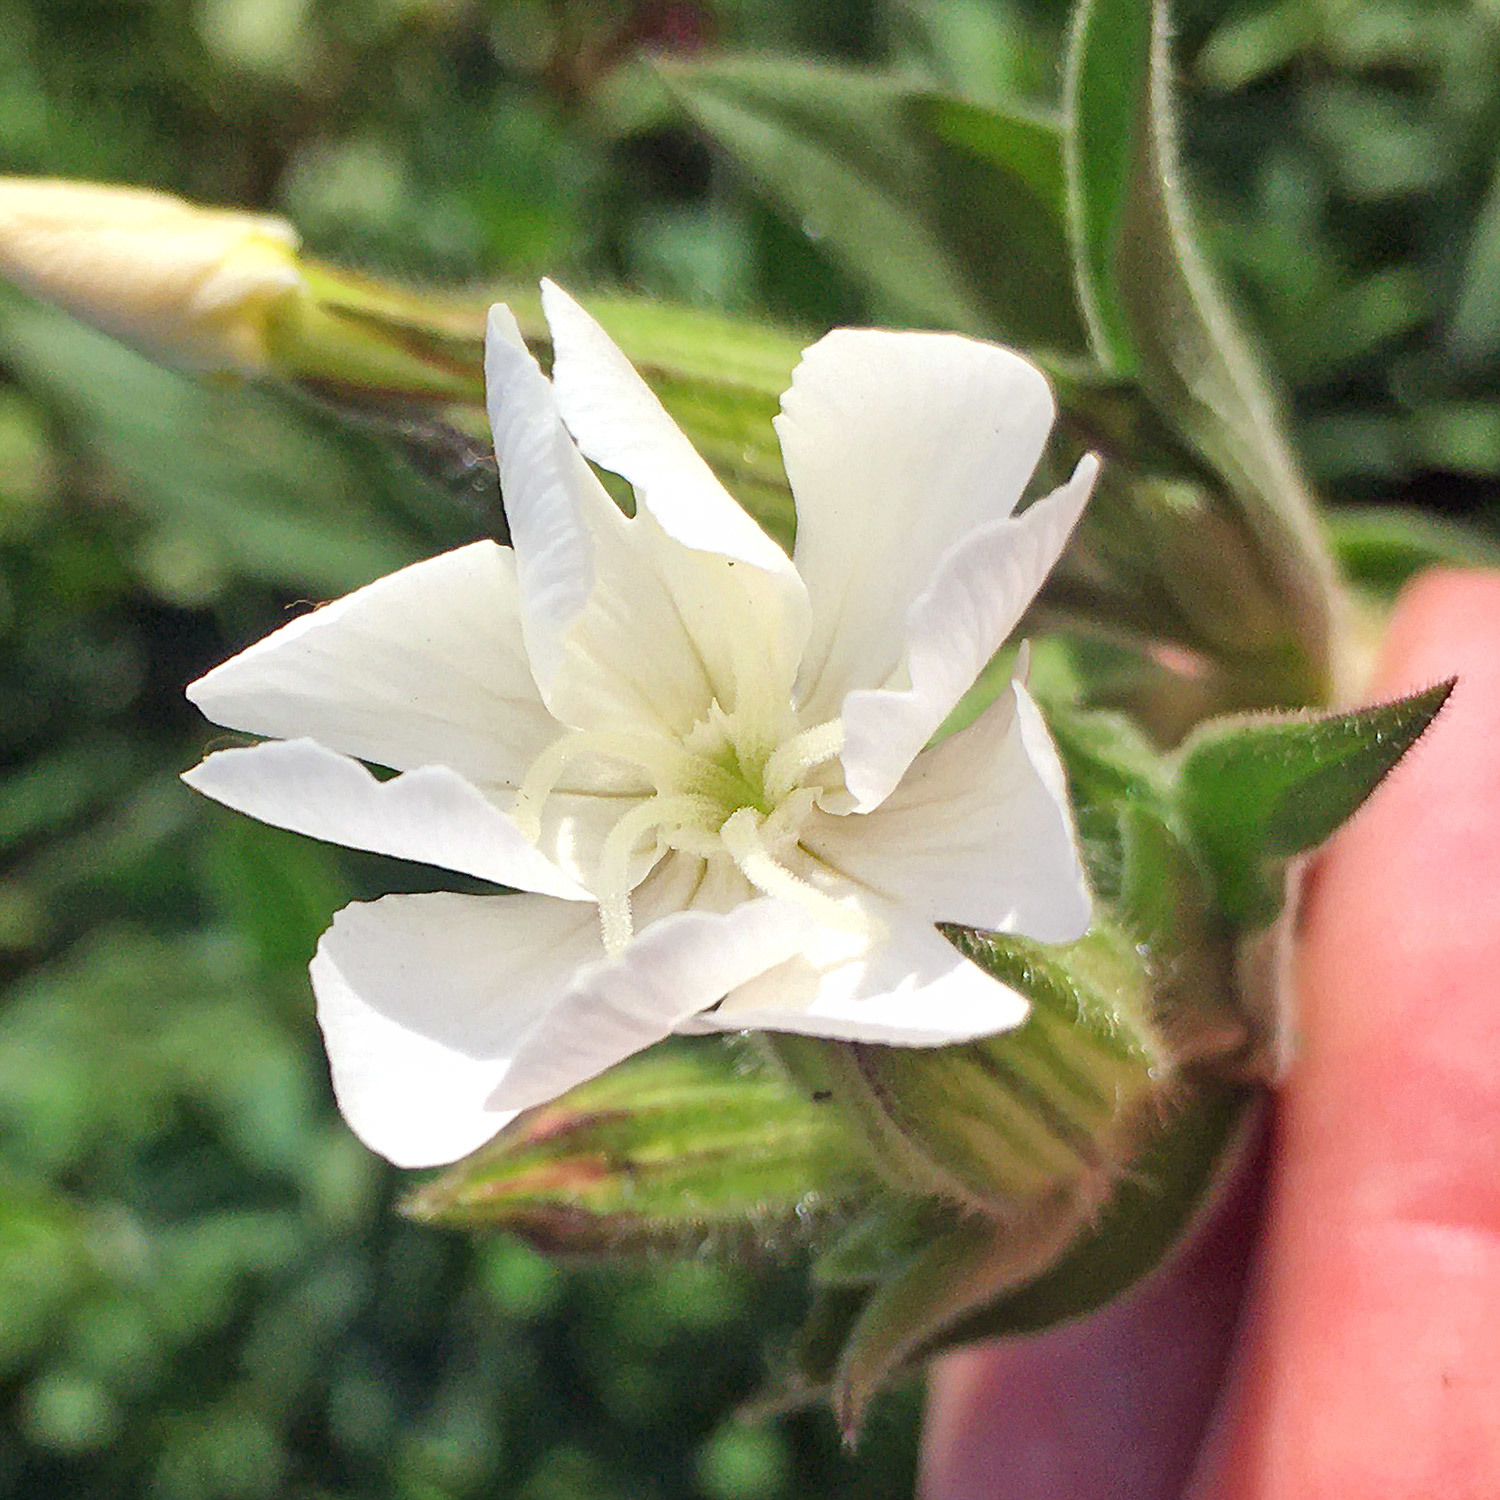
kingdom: Plantae
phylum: Tracheophyta
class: Magnoliopsida
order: Caryophyllales
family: Caryophyllaceae
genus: Silene
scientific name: Silene latifolia
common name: White campion
